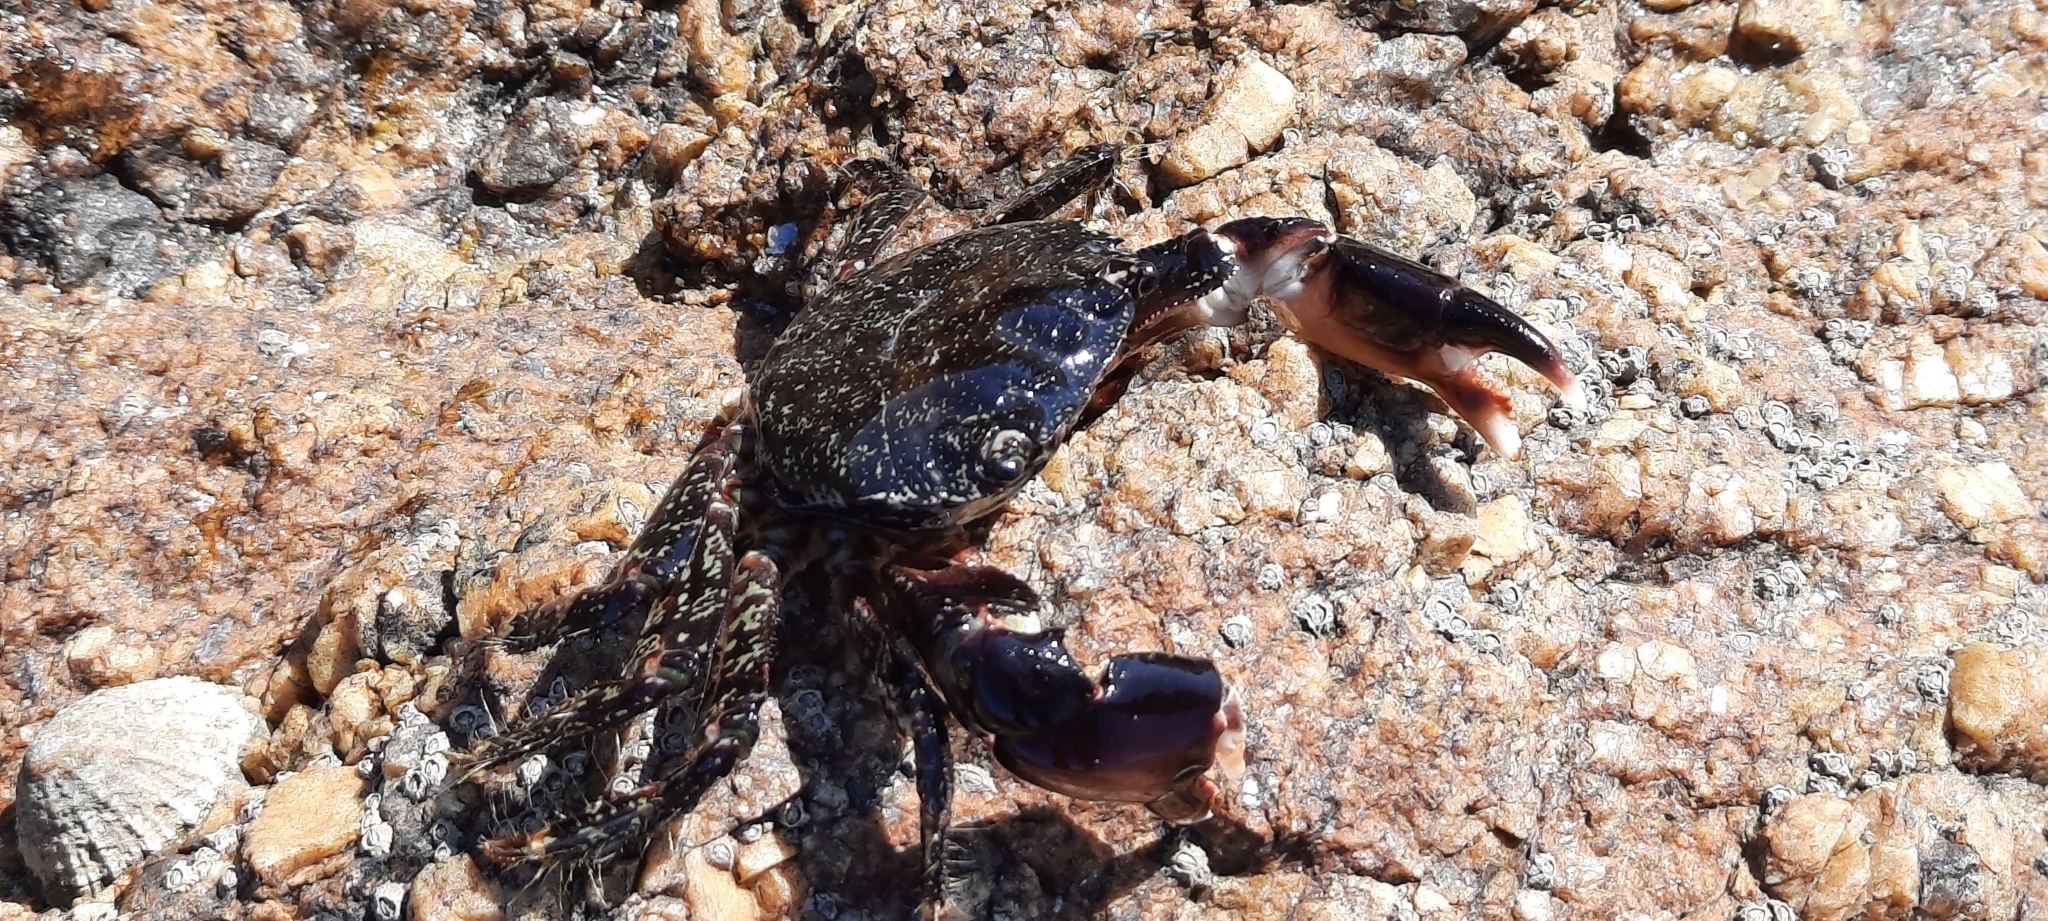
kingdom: Animalia
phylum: Arthropoda
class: Malacostraca
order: Decapoda
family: Grapsidae
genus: Pachygrapsus
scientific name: Pachygrapsus marmoratus
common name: Marbled rock crab
